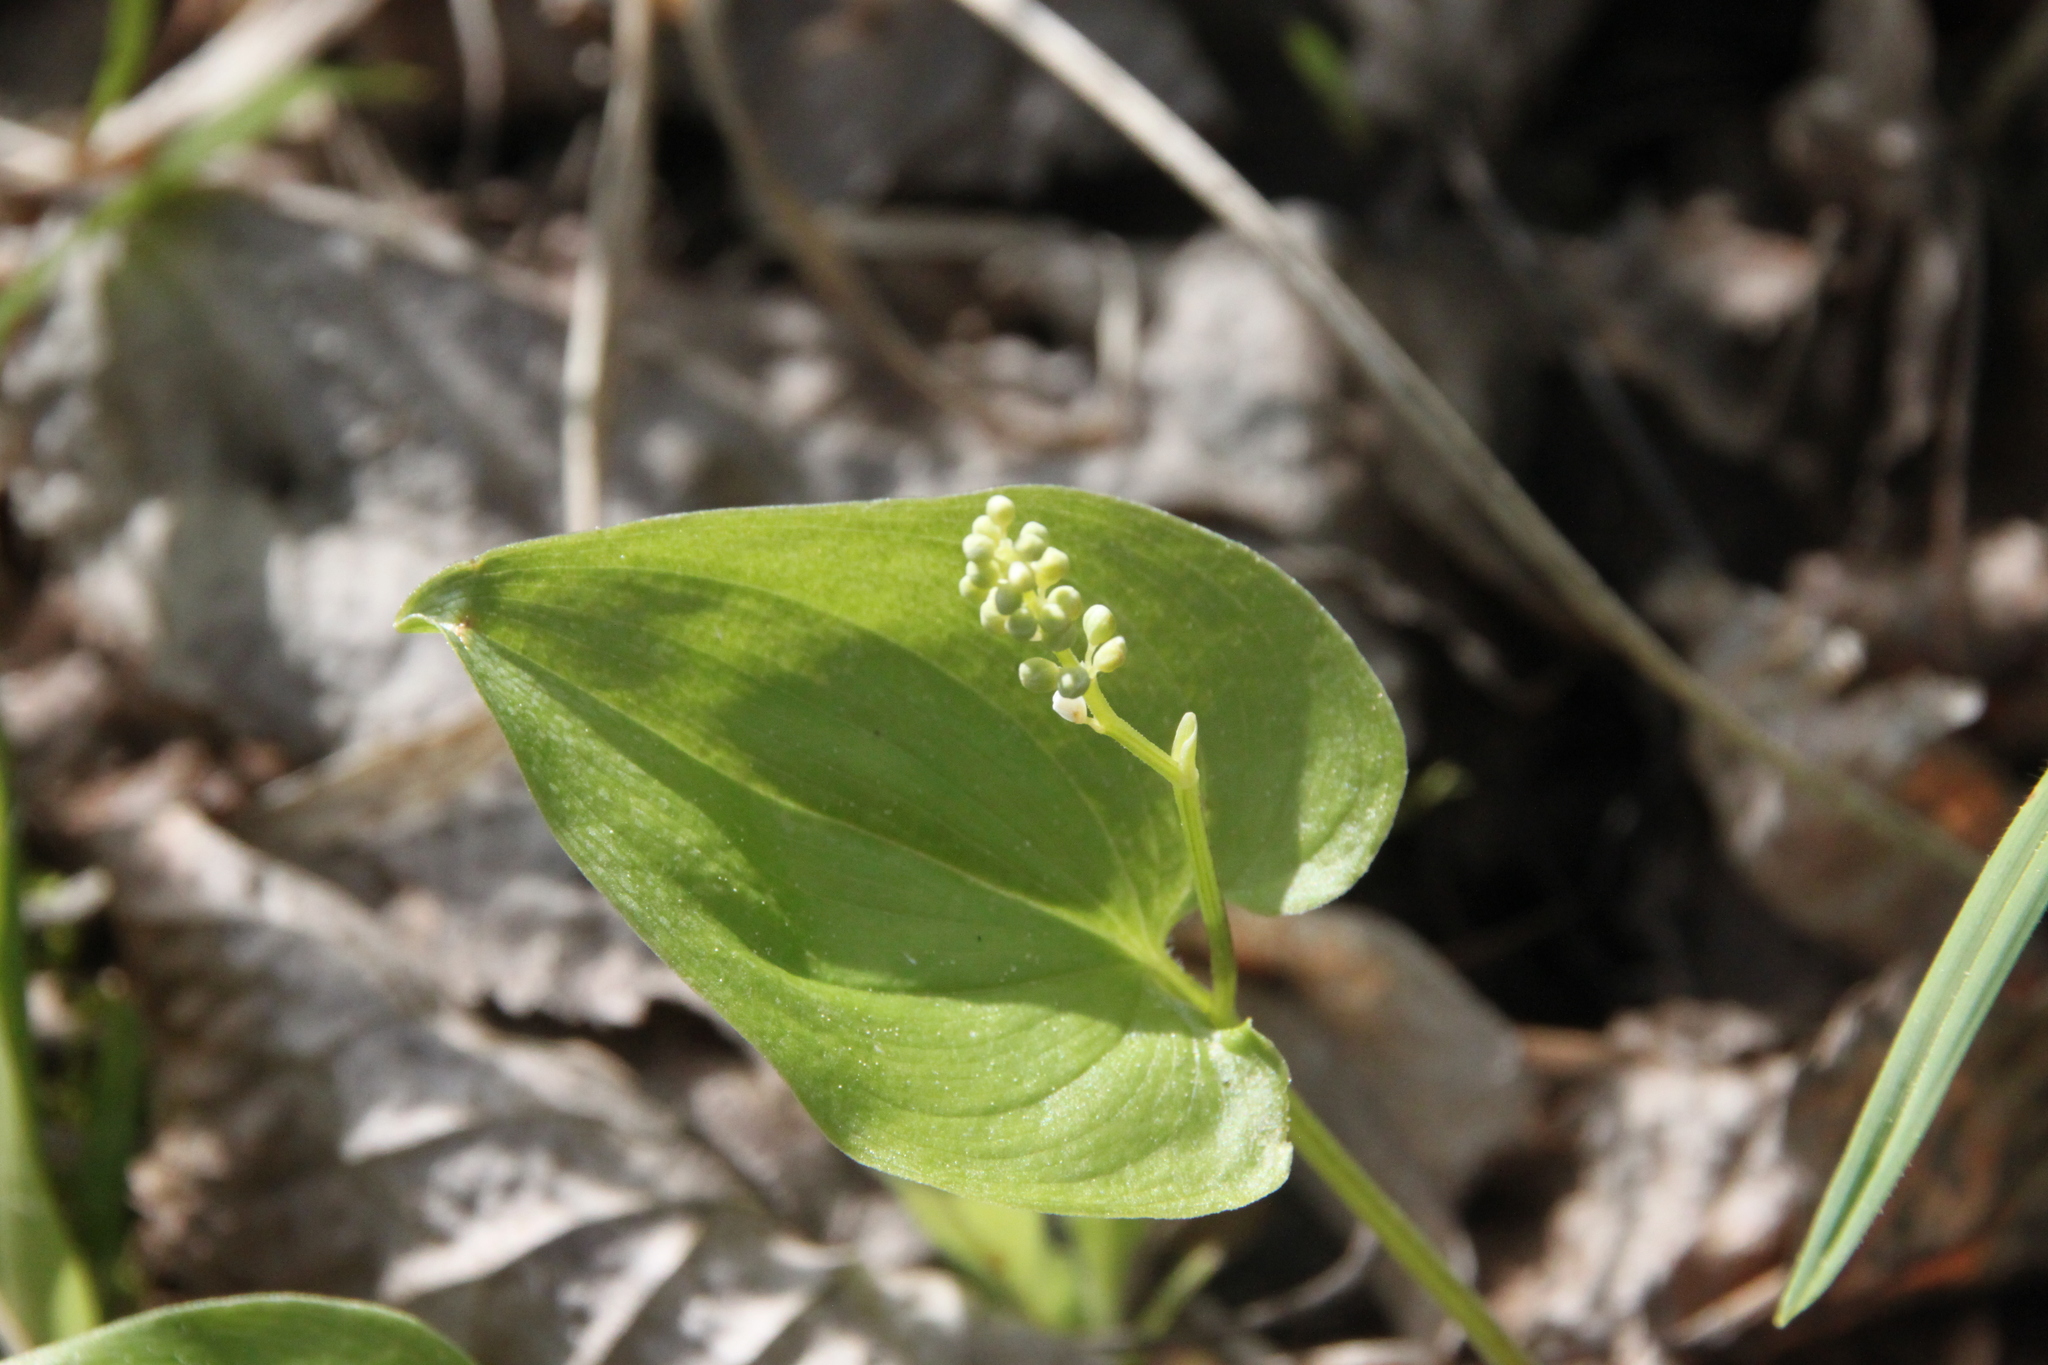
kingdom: Plantae
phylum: Tracheophyta
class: Liliopsida
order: Asparagales
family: Asparagaceae
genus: Maianthemum
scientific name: Maianthemum bifolium
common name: May lily
